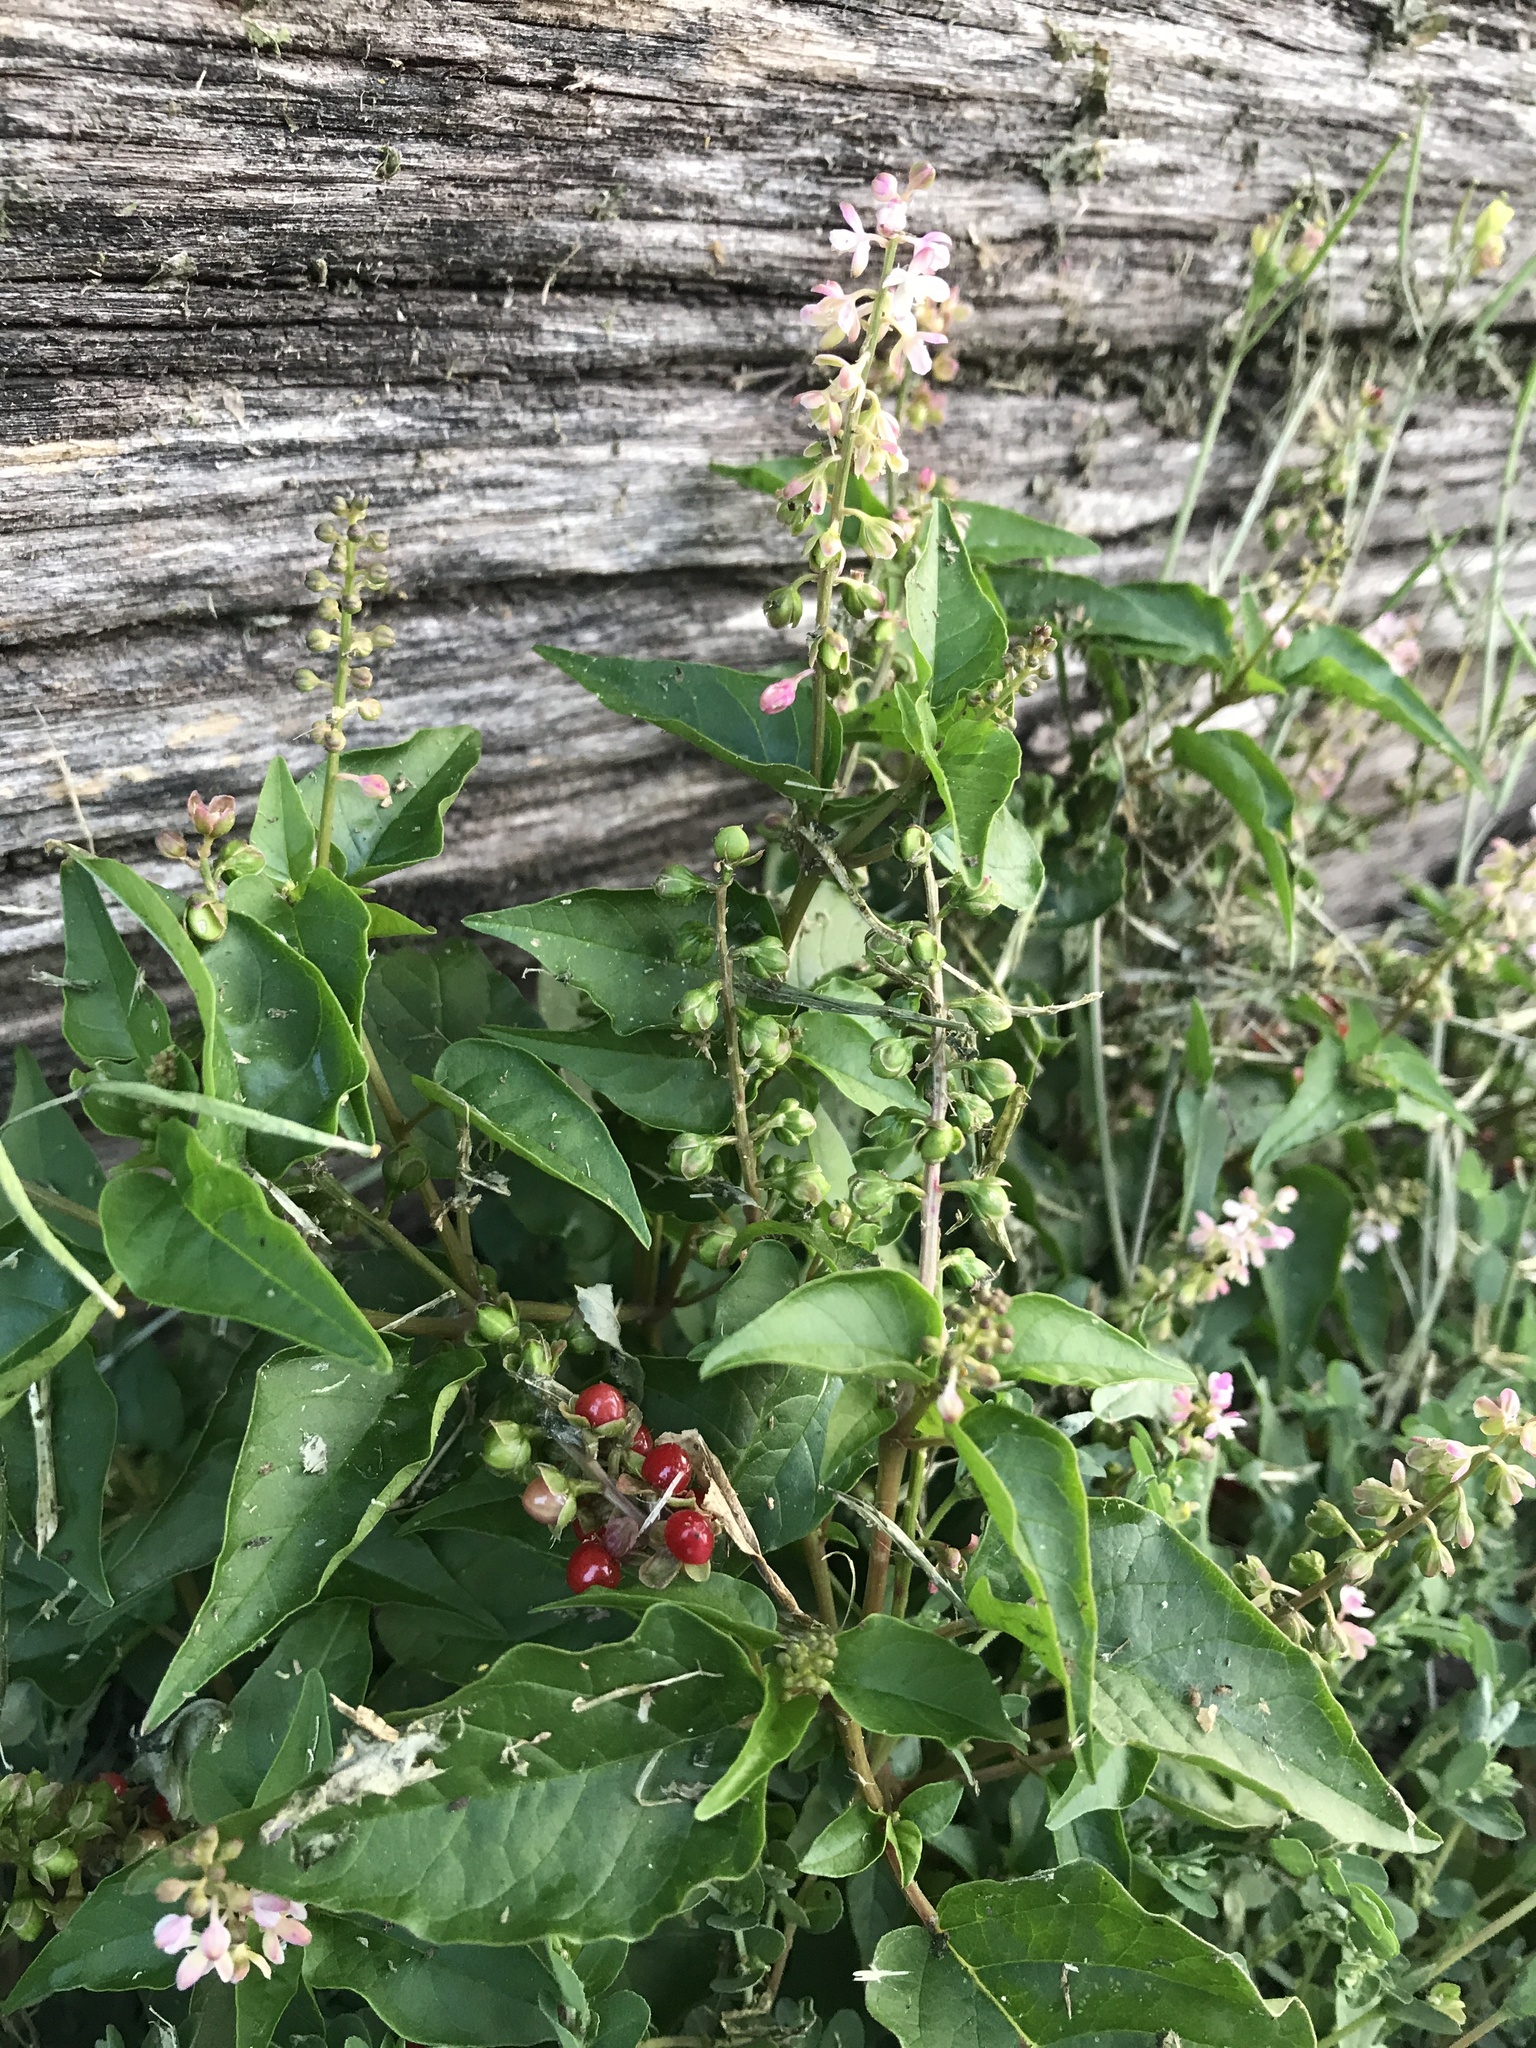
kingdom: Plantae
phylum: Tracheophyta
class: Magnoliopsida
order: Caryophyllales
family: Phytolaccaceae
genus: Rivina
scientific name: Rivina humilis
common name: Rougeplant
